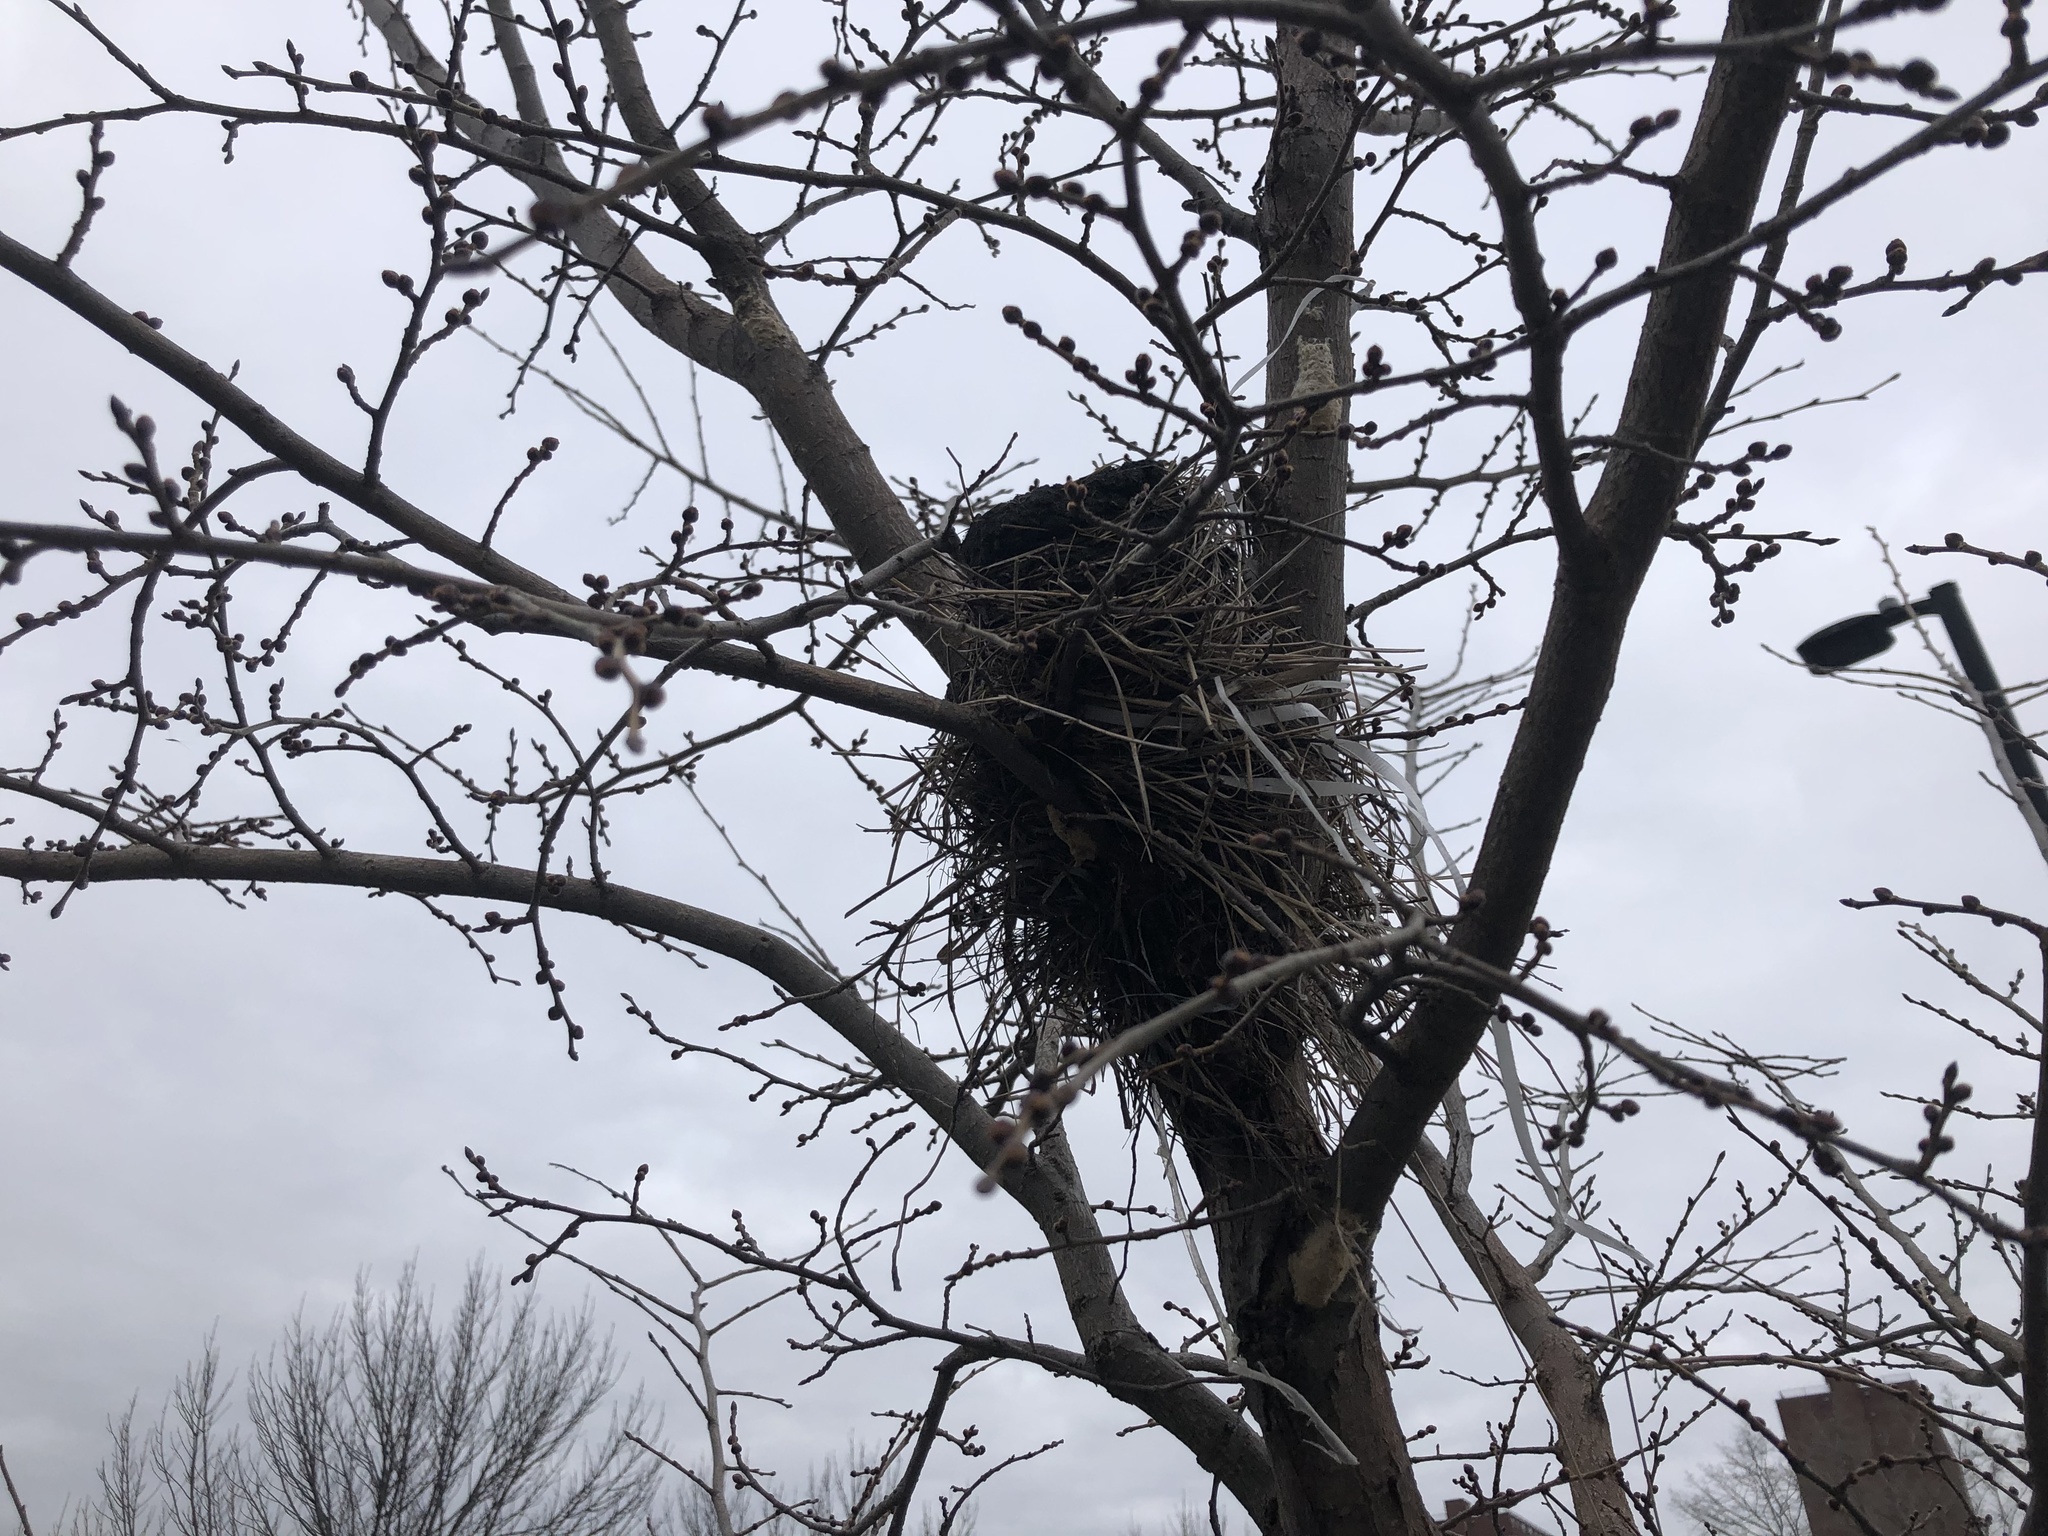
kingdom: Animalia
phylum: Chordata
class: Aves
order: Passeriformes
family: Turdidae
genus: Turdus
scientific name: Turdus migratorius
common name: American robin
